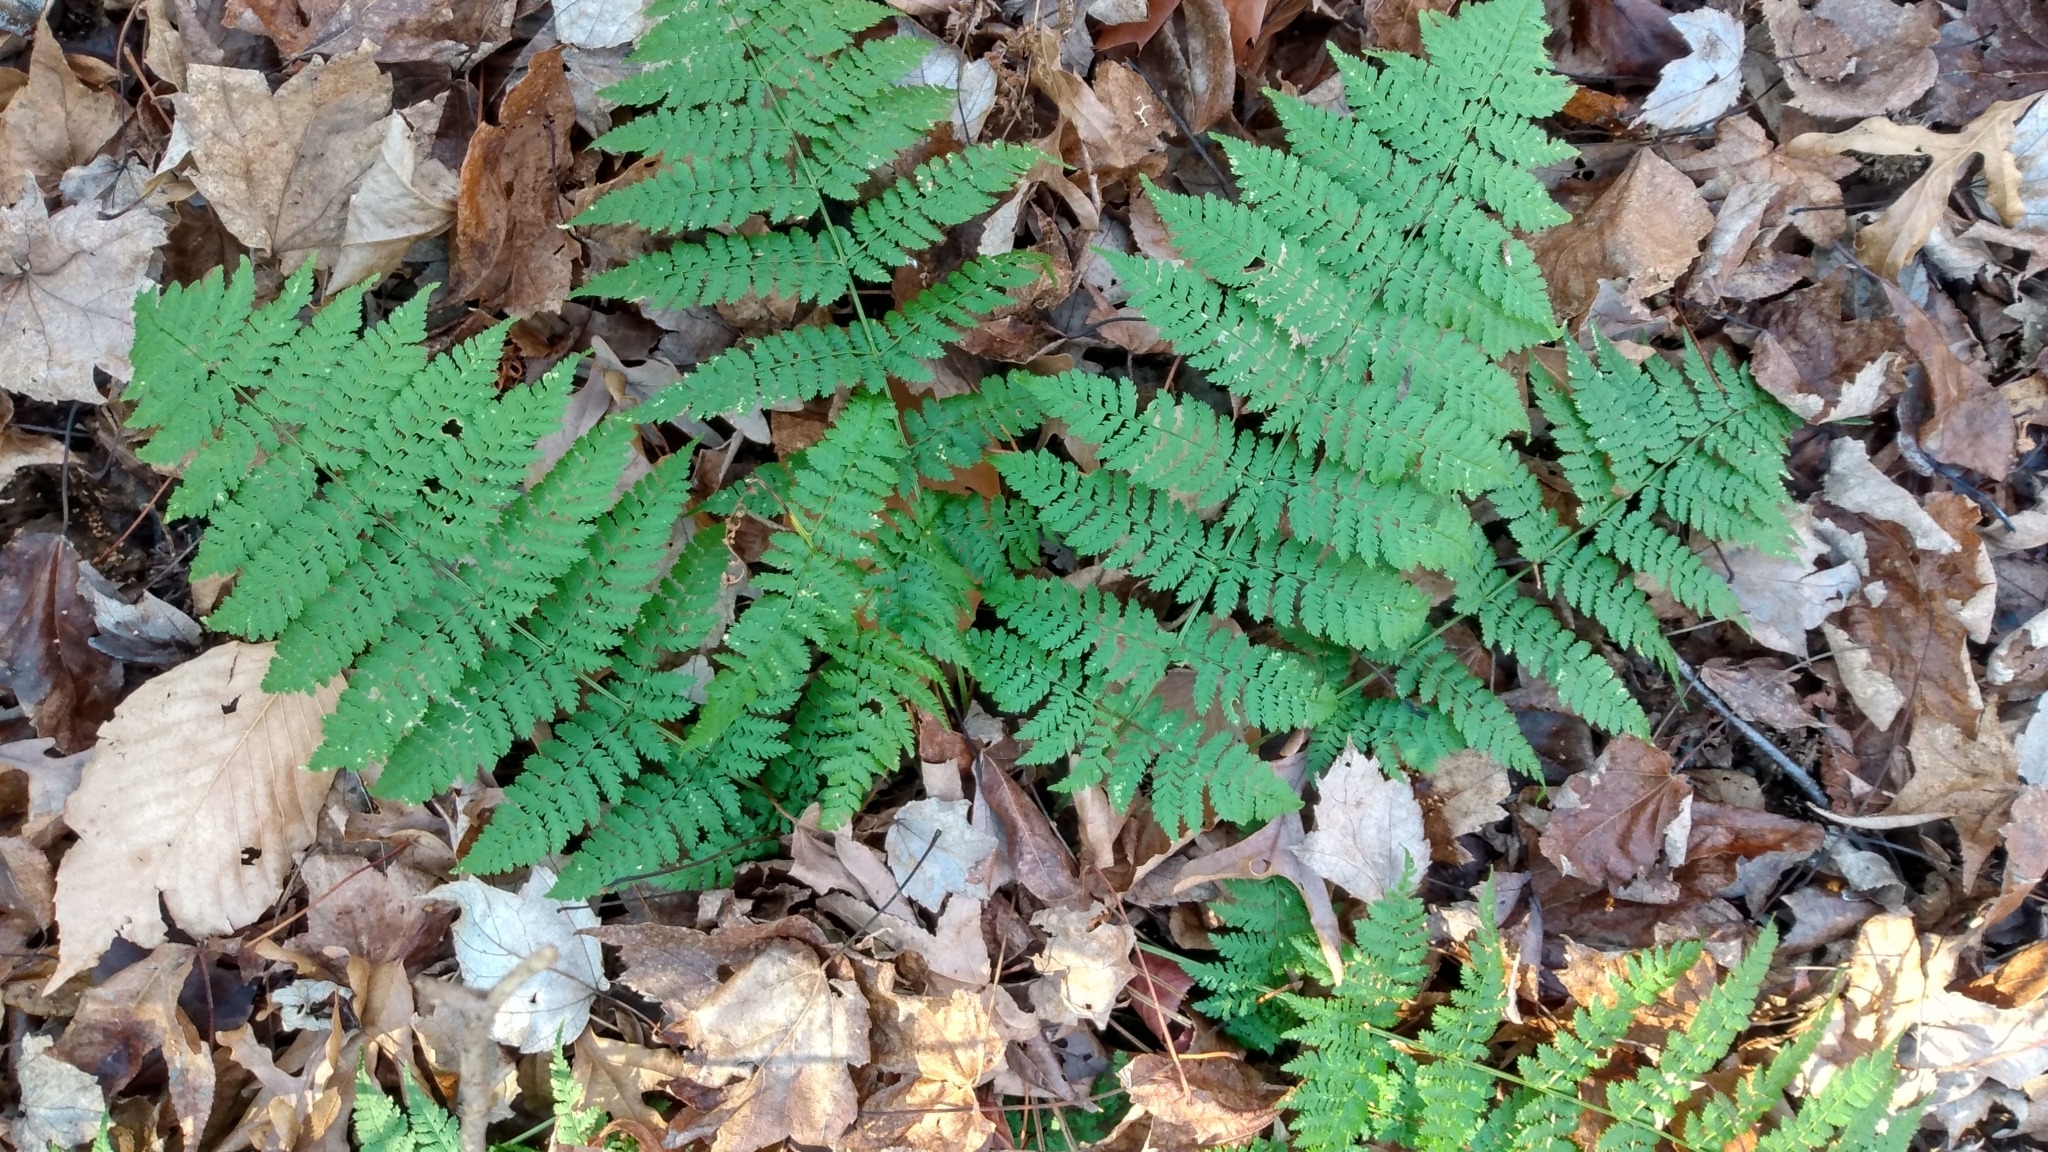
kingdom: Plantae
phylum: Tracheophyta
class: Polypodiopsida
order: Polypodiales
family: Dryopteridaceae
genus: Dryopteris
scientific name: Dryopteris intermedia
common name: Evergreen wood fern
